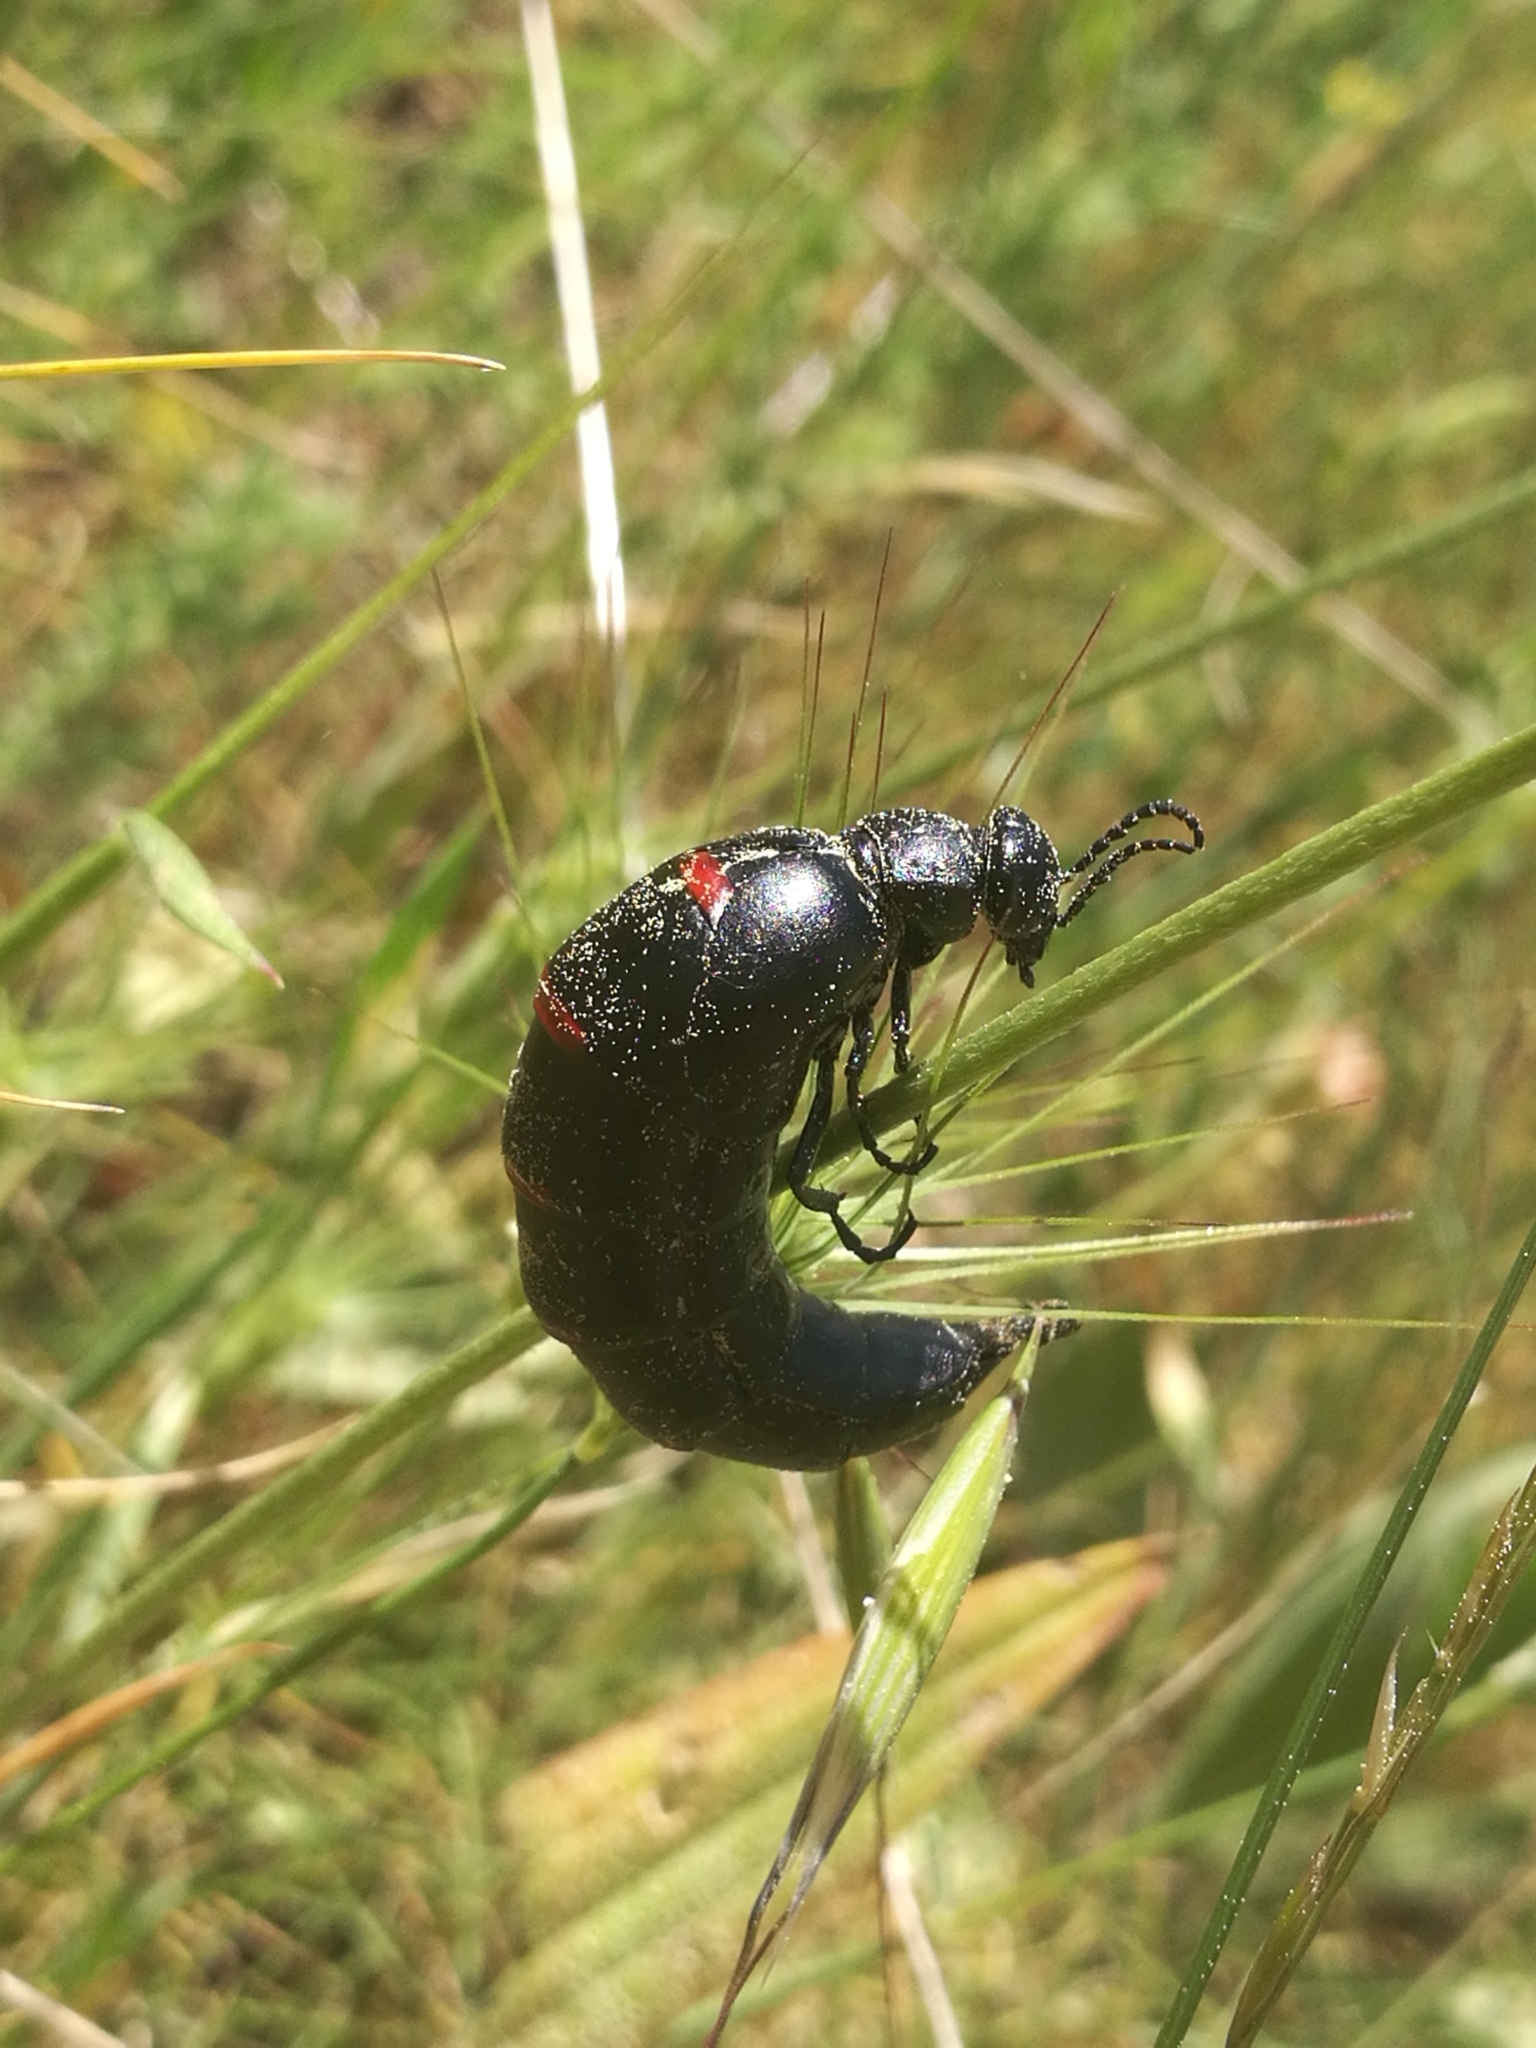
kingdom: Animalia
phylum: Arthropoda
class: Insecta
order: Coleoptera
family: Meloidae
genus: Berberomeloe
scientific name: Berberomeloe majalis
